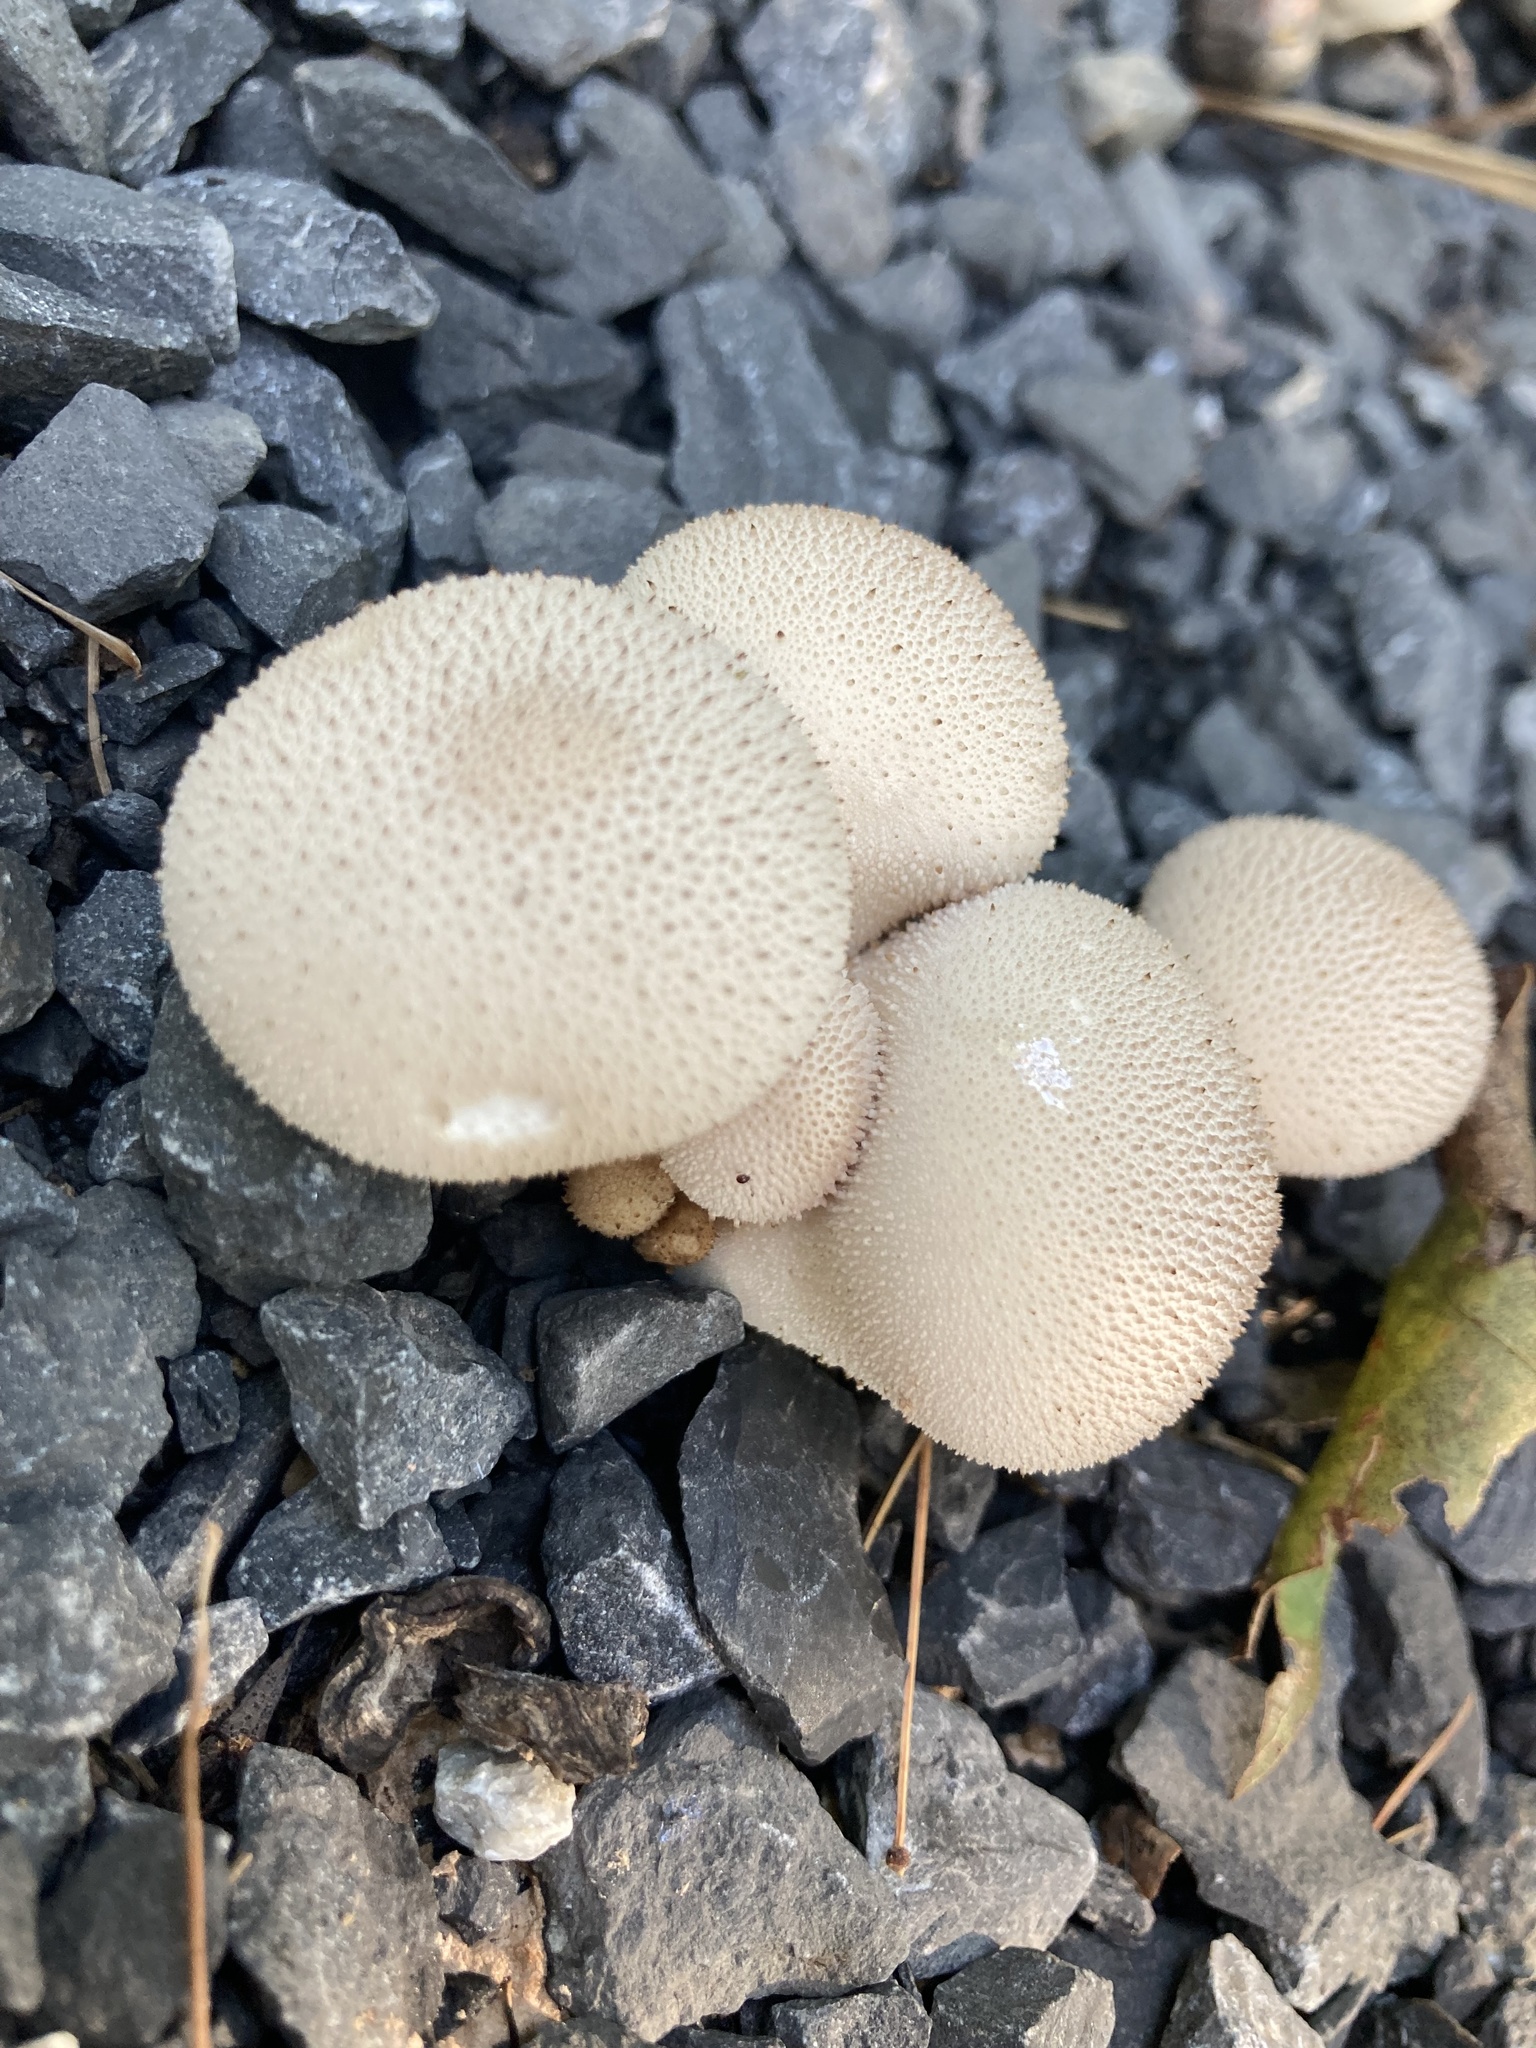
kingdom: Fungi
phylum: Basidiomycota
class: Agaricomycetes
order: Agaricales
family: Lycoperdaceae
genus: Lycoperdon
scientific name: Lycoperdon perlatum
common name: Common puffball
